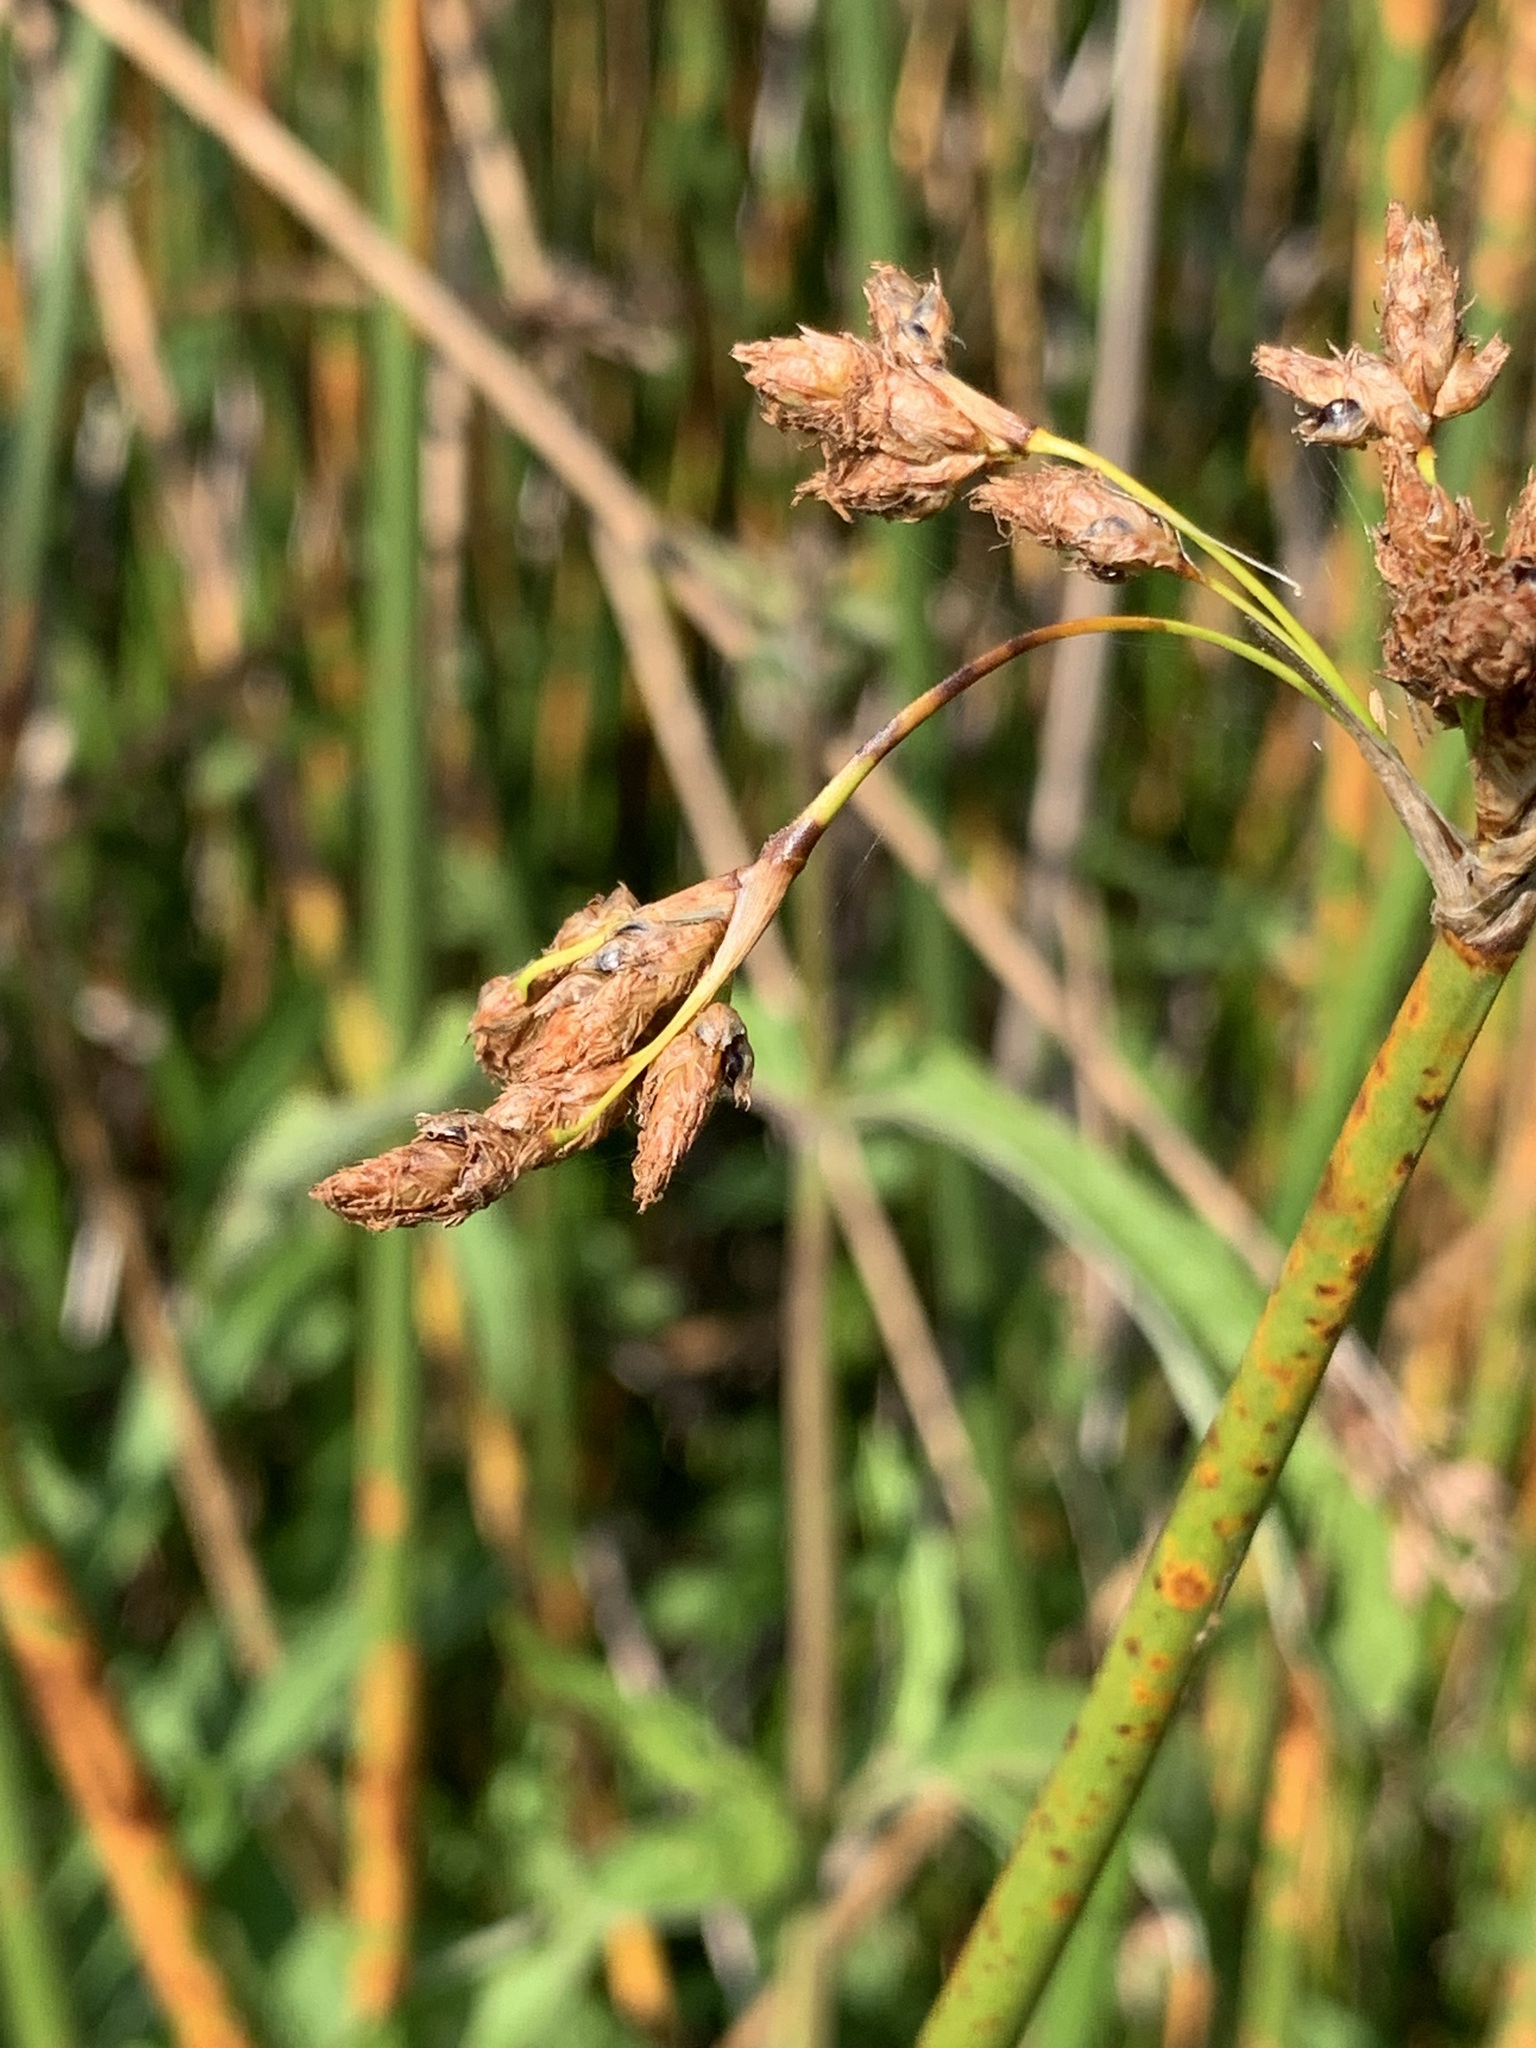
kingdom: Plantae
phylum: Tracheophyta
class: Liliopsida
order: Poales
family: Cyperaceae
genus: Schoenoplectus
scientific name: Schoenoplectus lacustris
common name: Common club-rush
